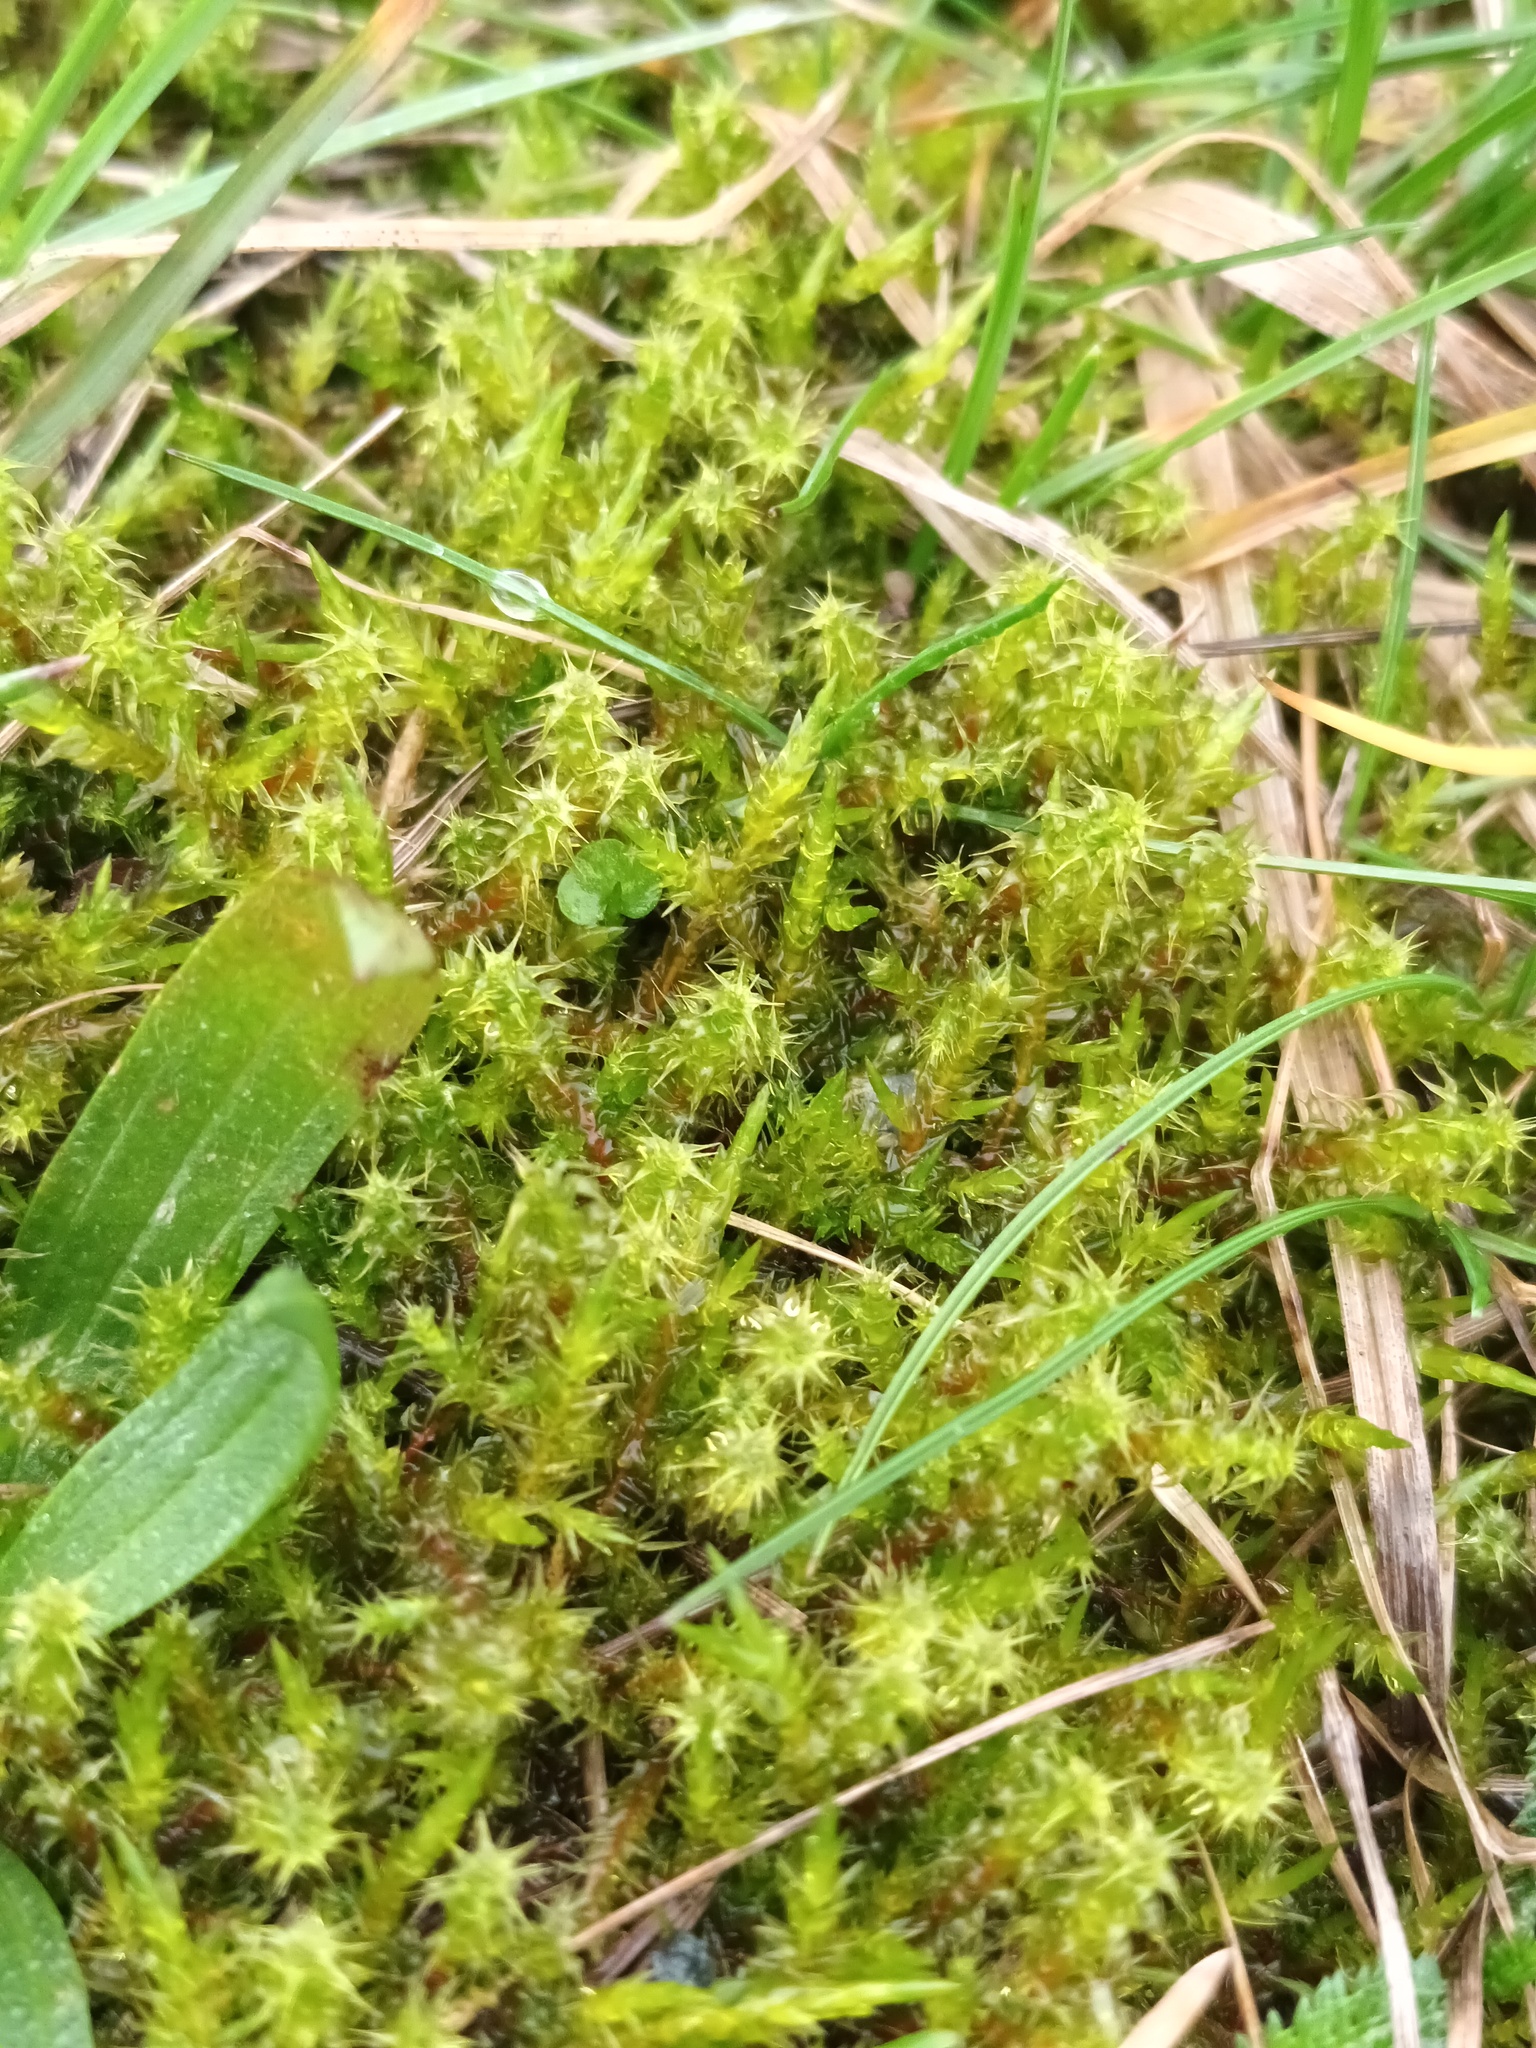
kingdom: Plantae
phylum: Bryophyta
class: Bryopsida
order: Hypnales
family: Hylocomiaceae
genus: Rhytidiadelphus
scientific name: Rhytidiadelphus squarrosus
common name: Springy turf-moss
